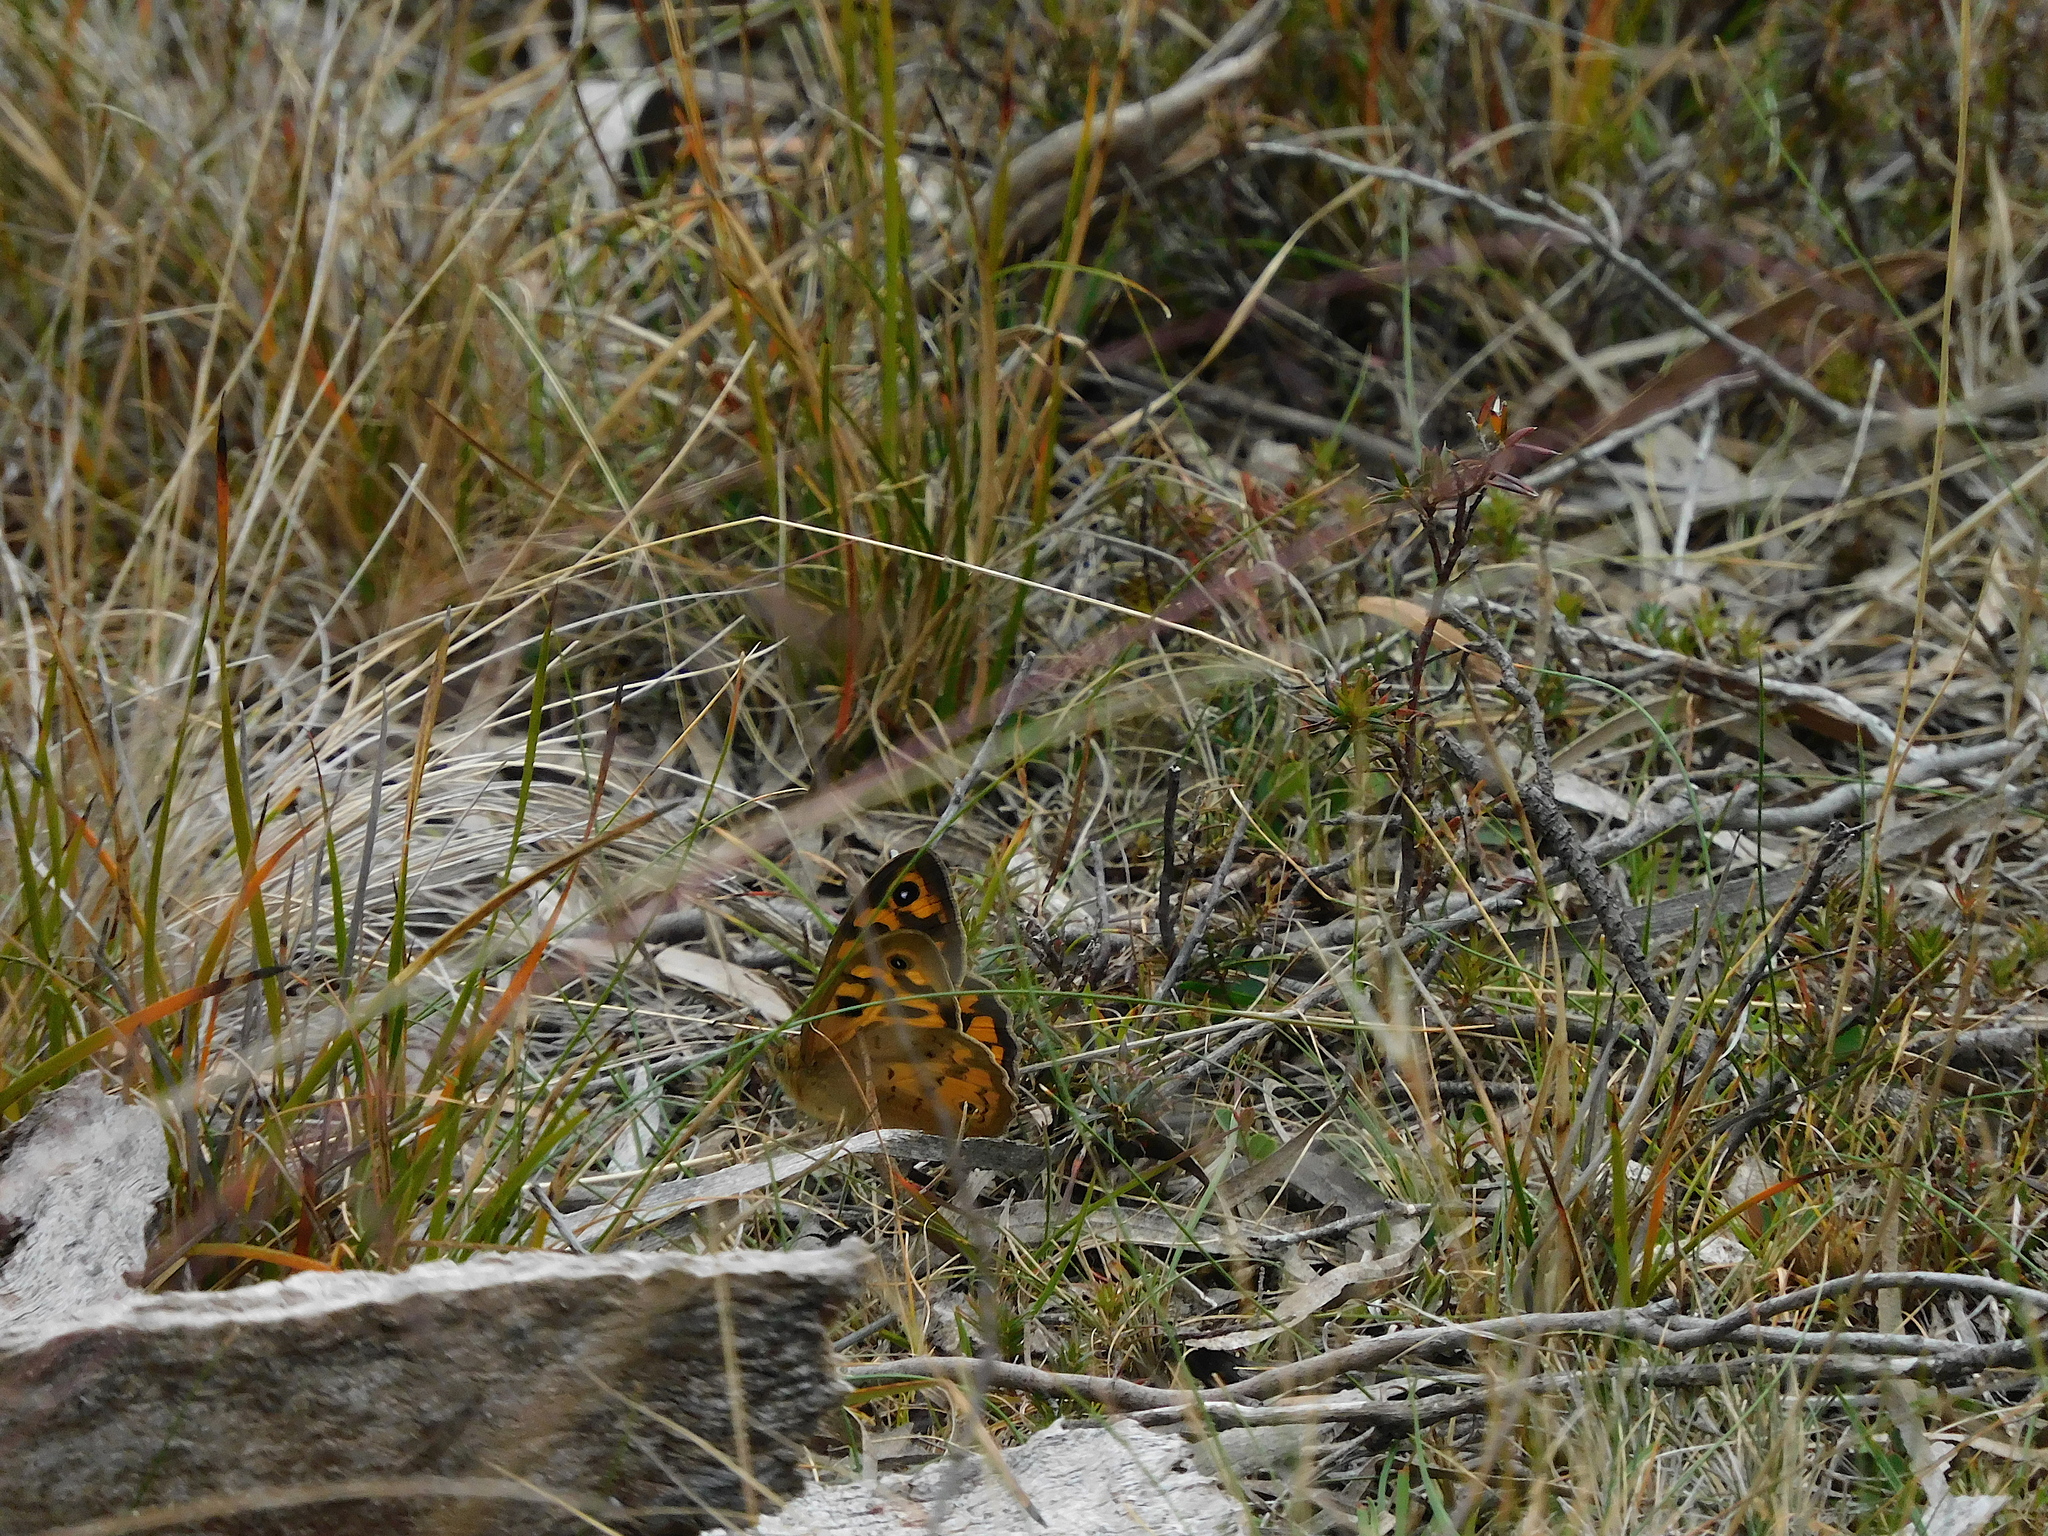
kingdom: Animalia
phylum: Arthropoda
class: Insecta
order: Lepidoptera
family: Nymphalidae
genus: Heteronympha
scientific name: Heteronympha merope
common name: Common brown
